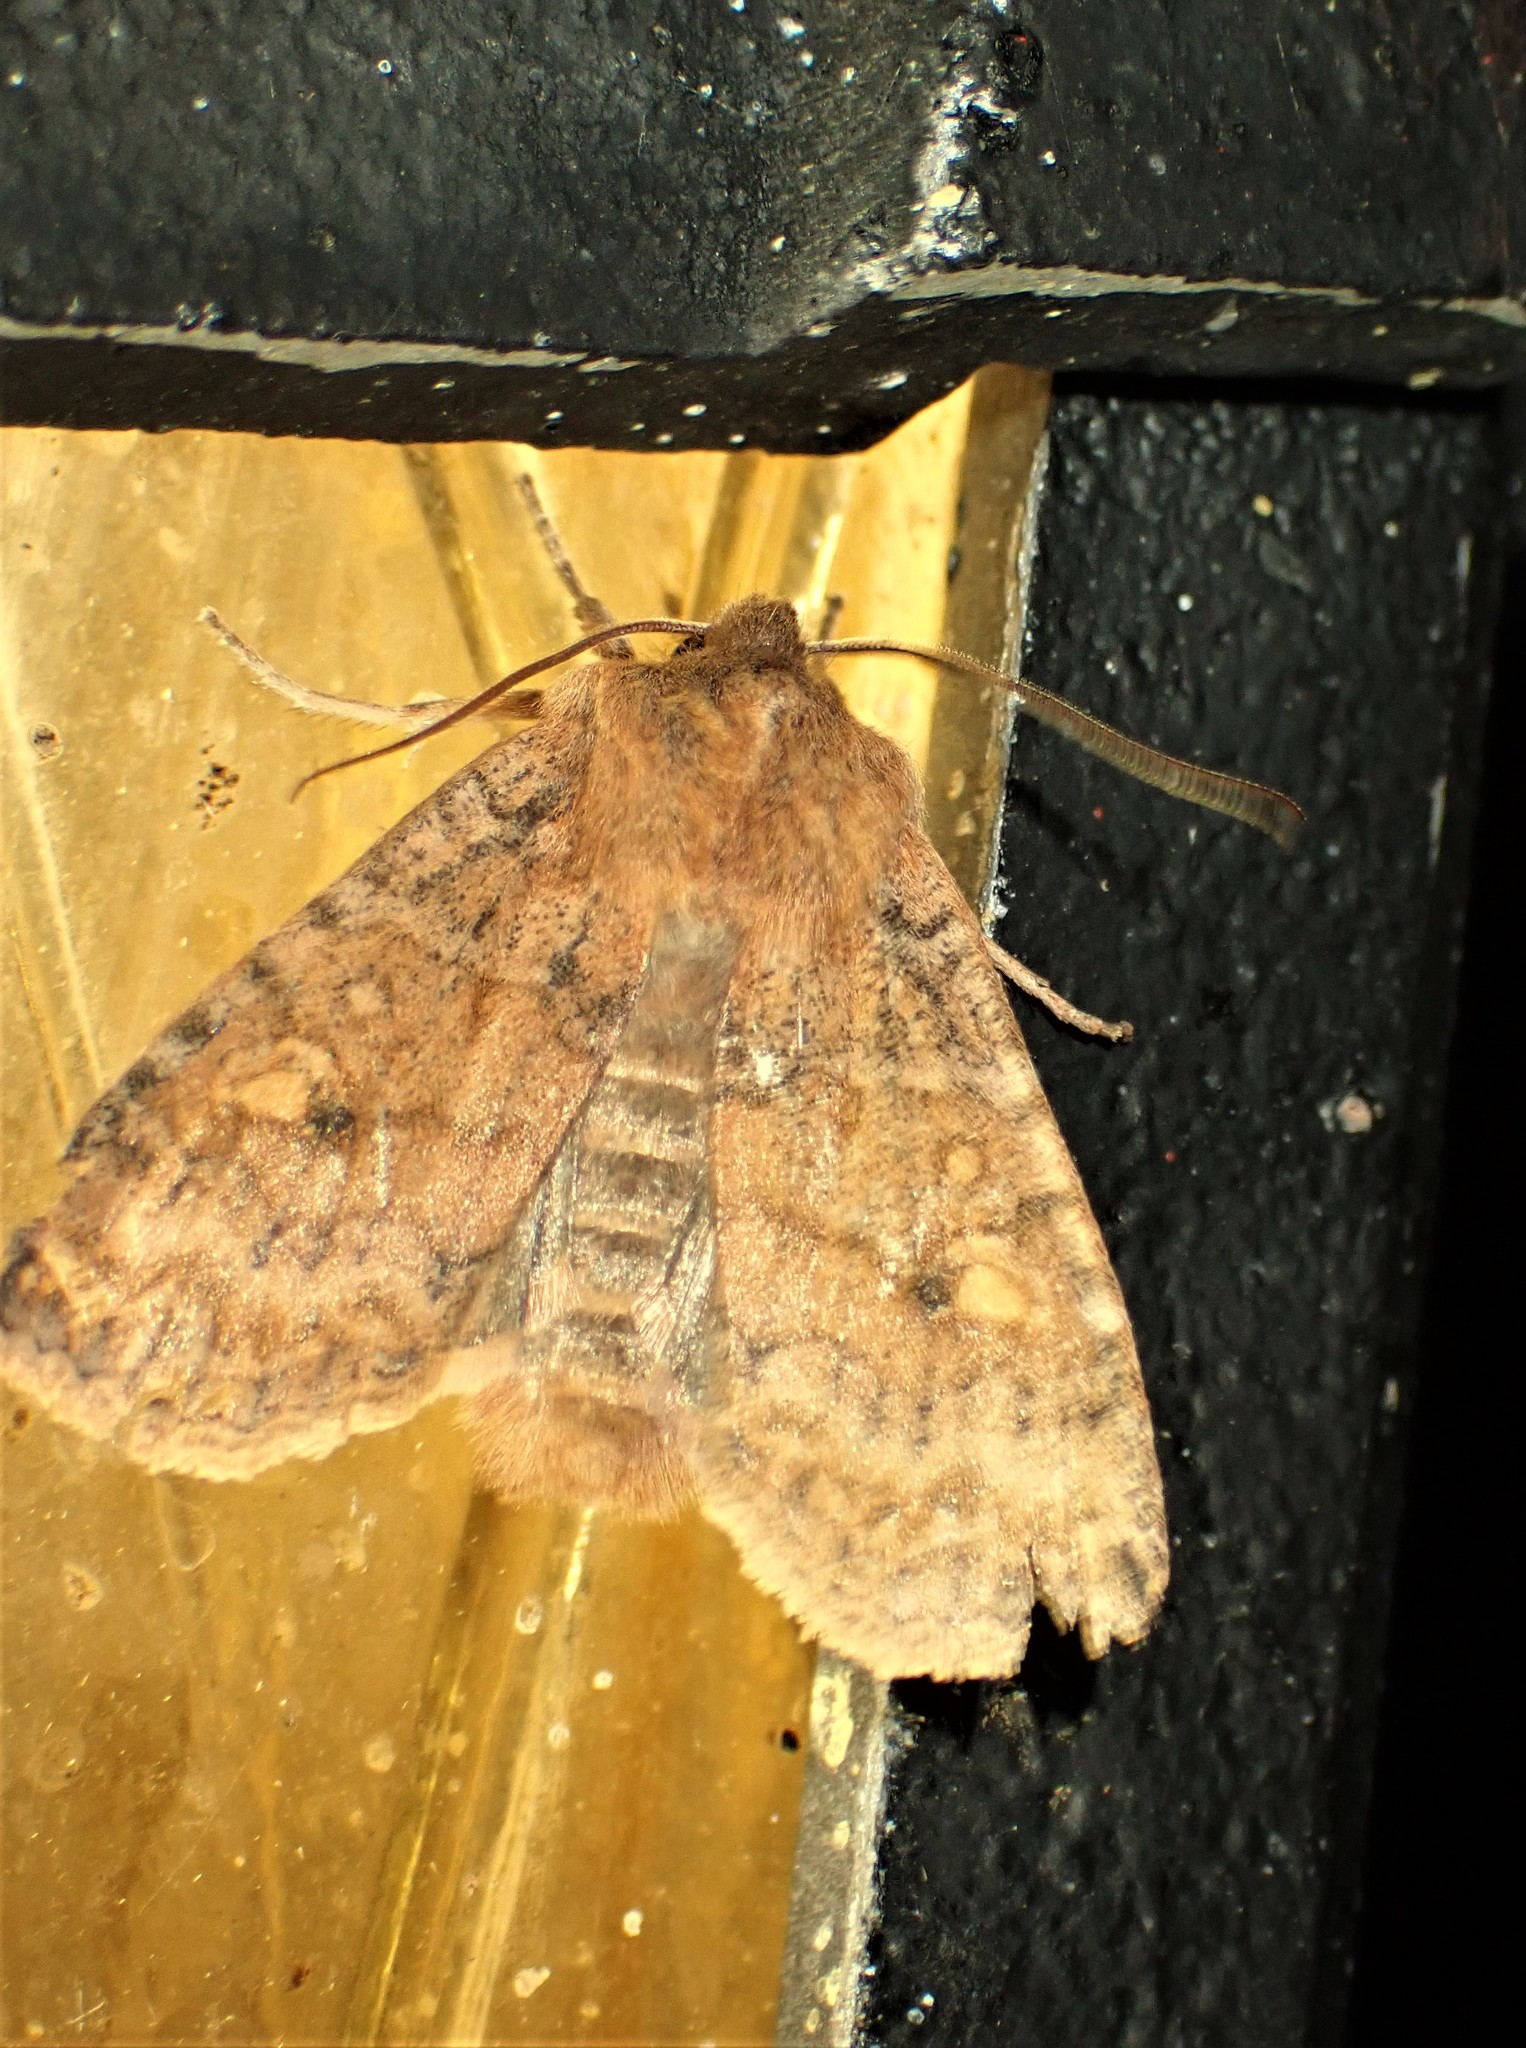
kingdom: Animalia
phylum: Arthropoda
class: Insecta
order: Lepidoptera
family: Noctuidae
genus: Eupsilia
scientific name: Eupsilia tristigmata
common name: Three-spotted sallow
